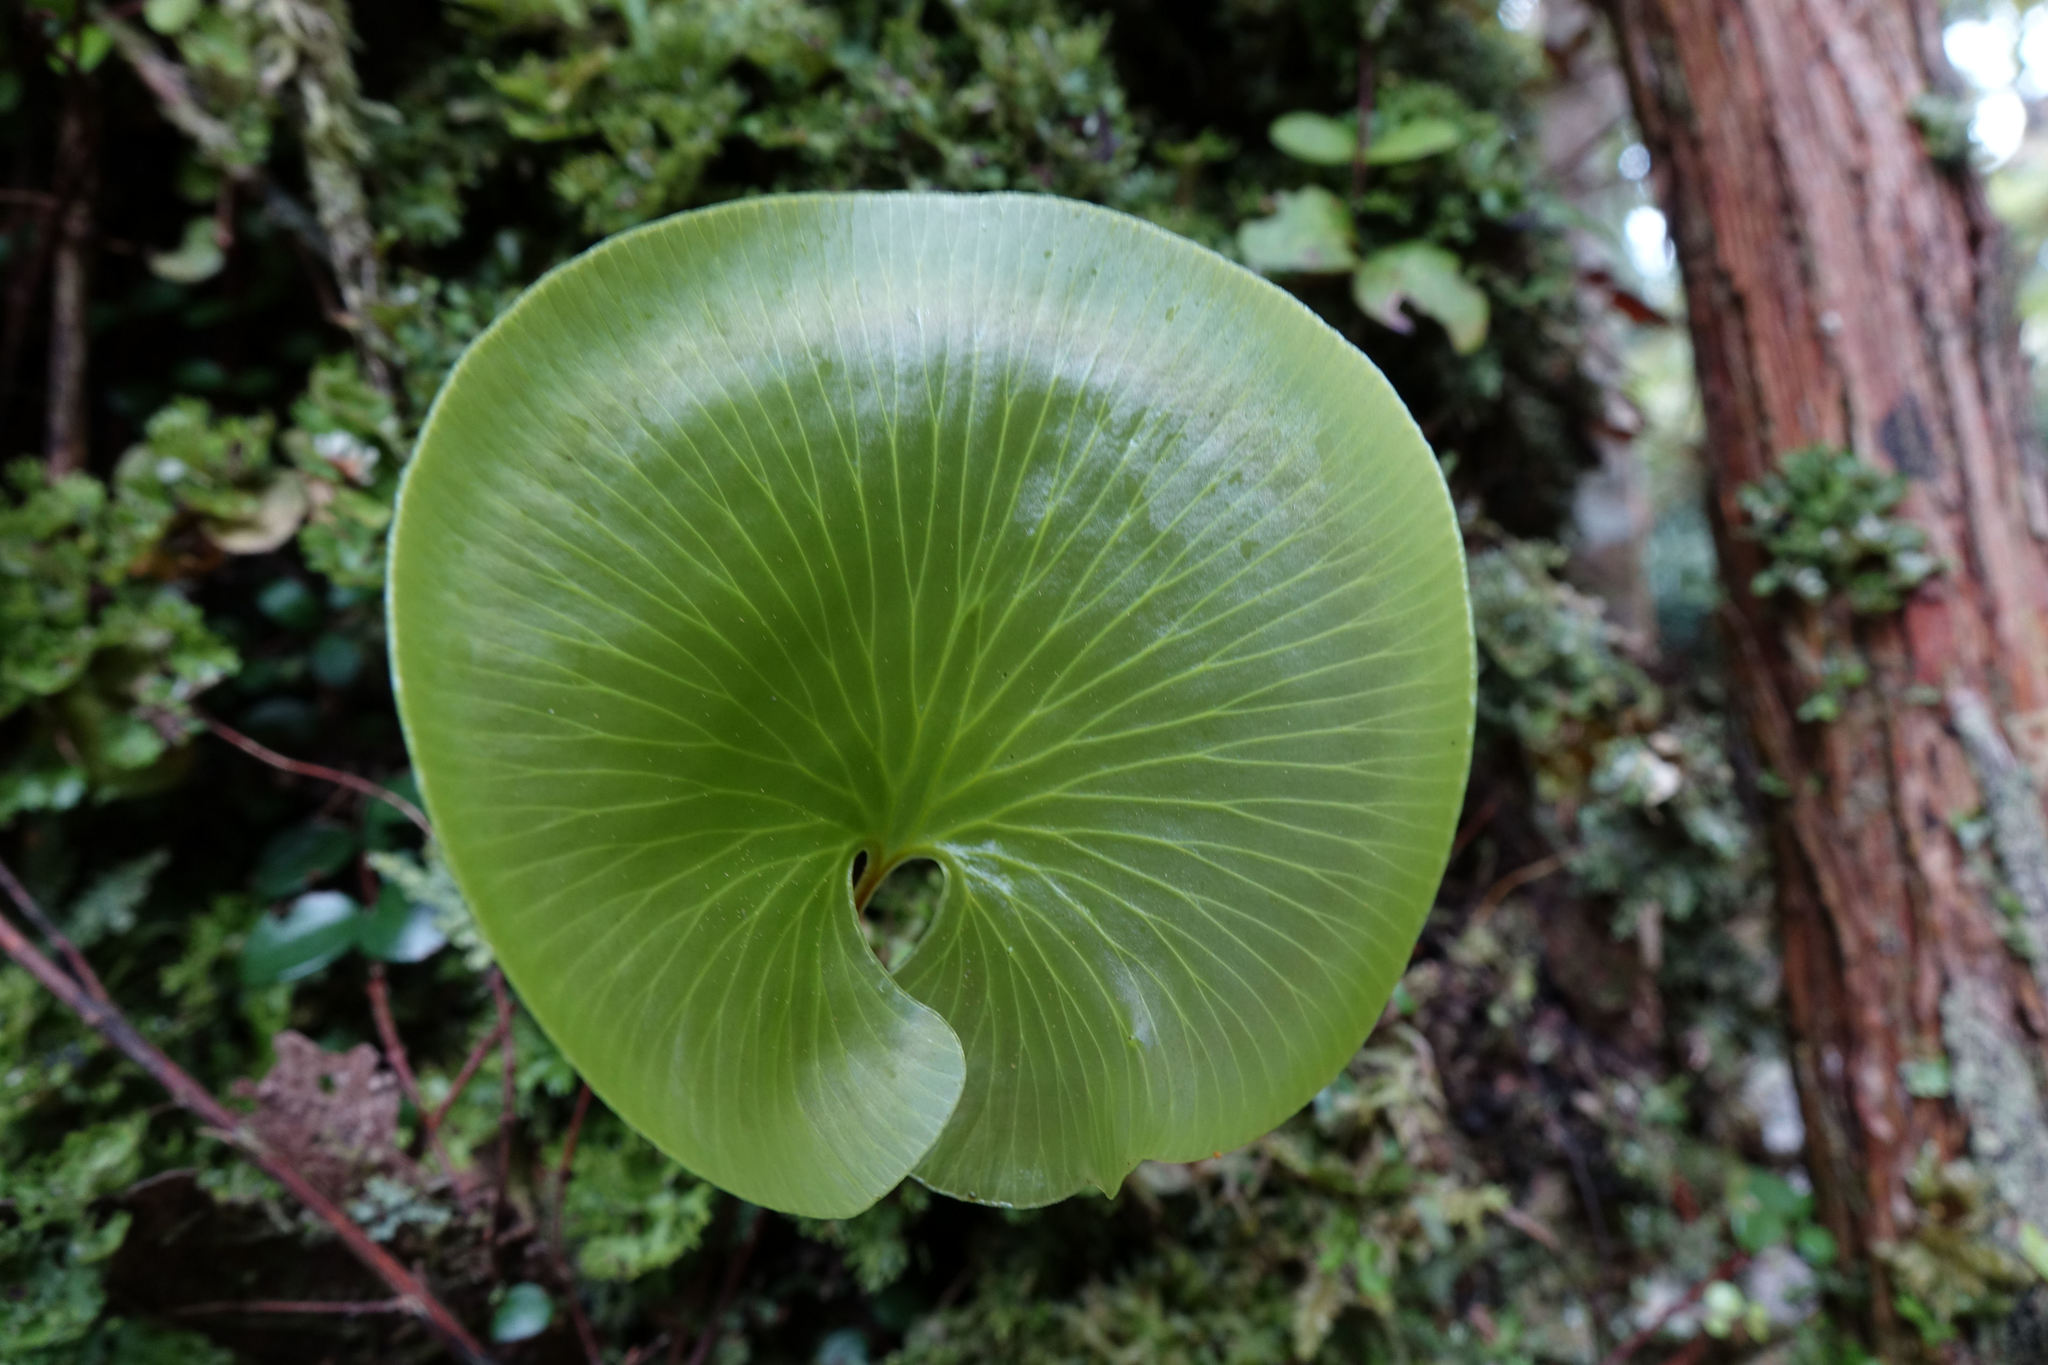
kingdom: Plantae
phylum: Tracheophyta
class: Polypodiopsida
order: Hymenophyllales
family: Hymenophyllaceae
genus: Hymenophyllum
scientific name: Hymenophyllum nephrophyllum
